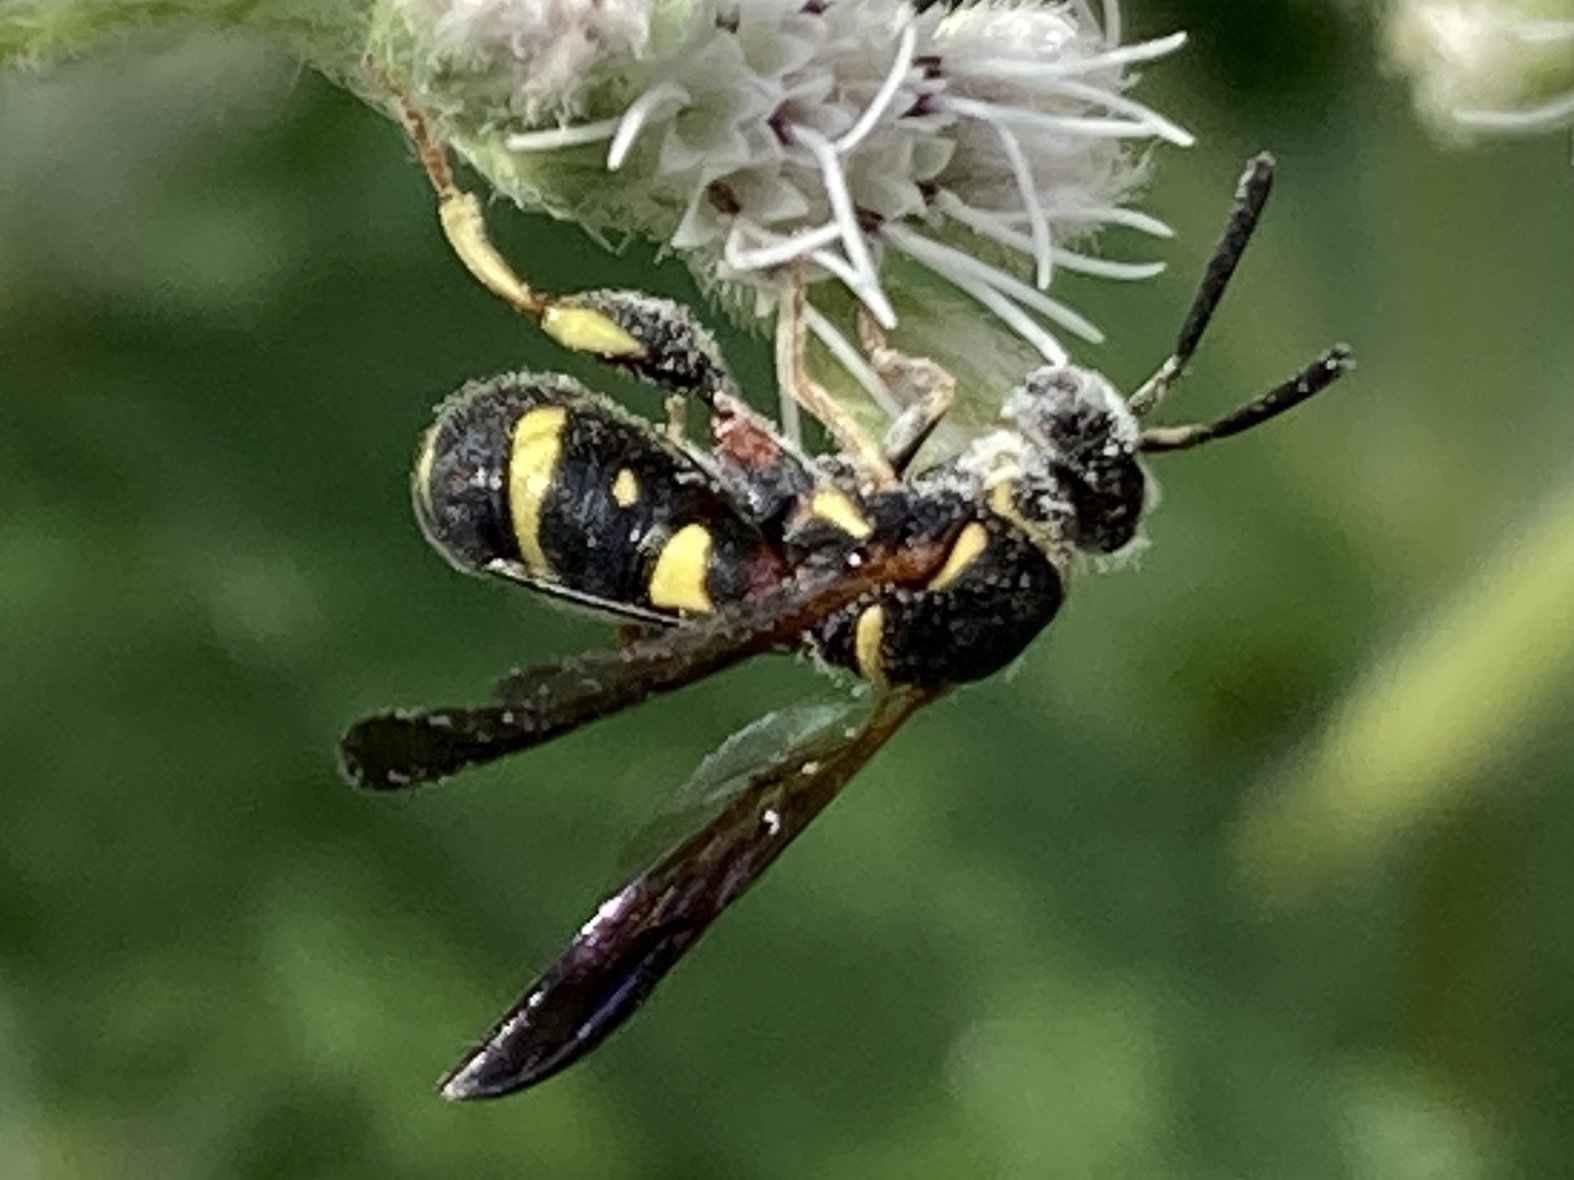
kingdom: Animalia
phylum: Arthropoda
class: Insecta
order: Hymenoptera
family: Leucospidae
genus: Leucospis
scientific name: Leucospis affinis
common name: Wasp
